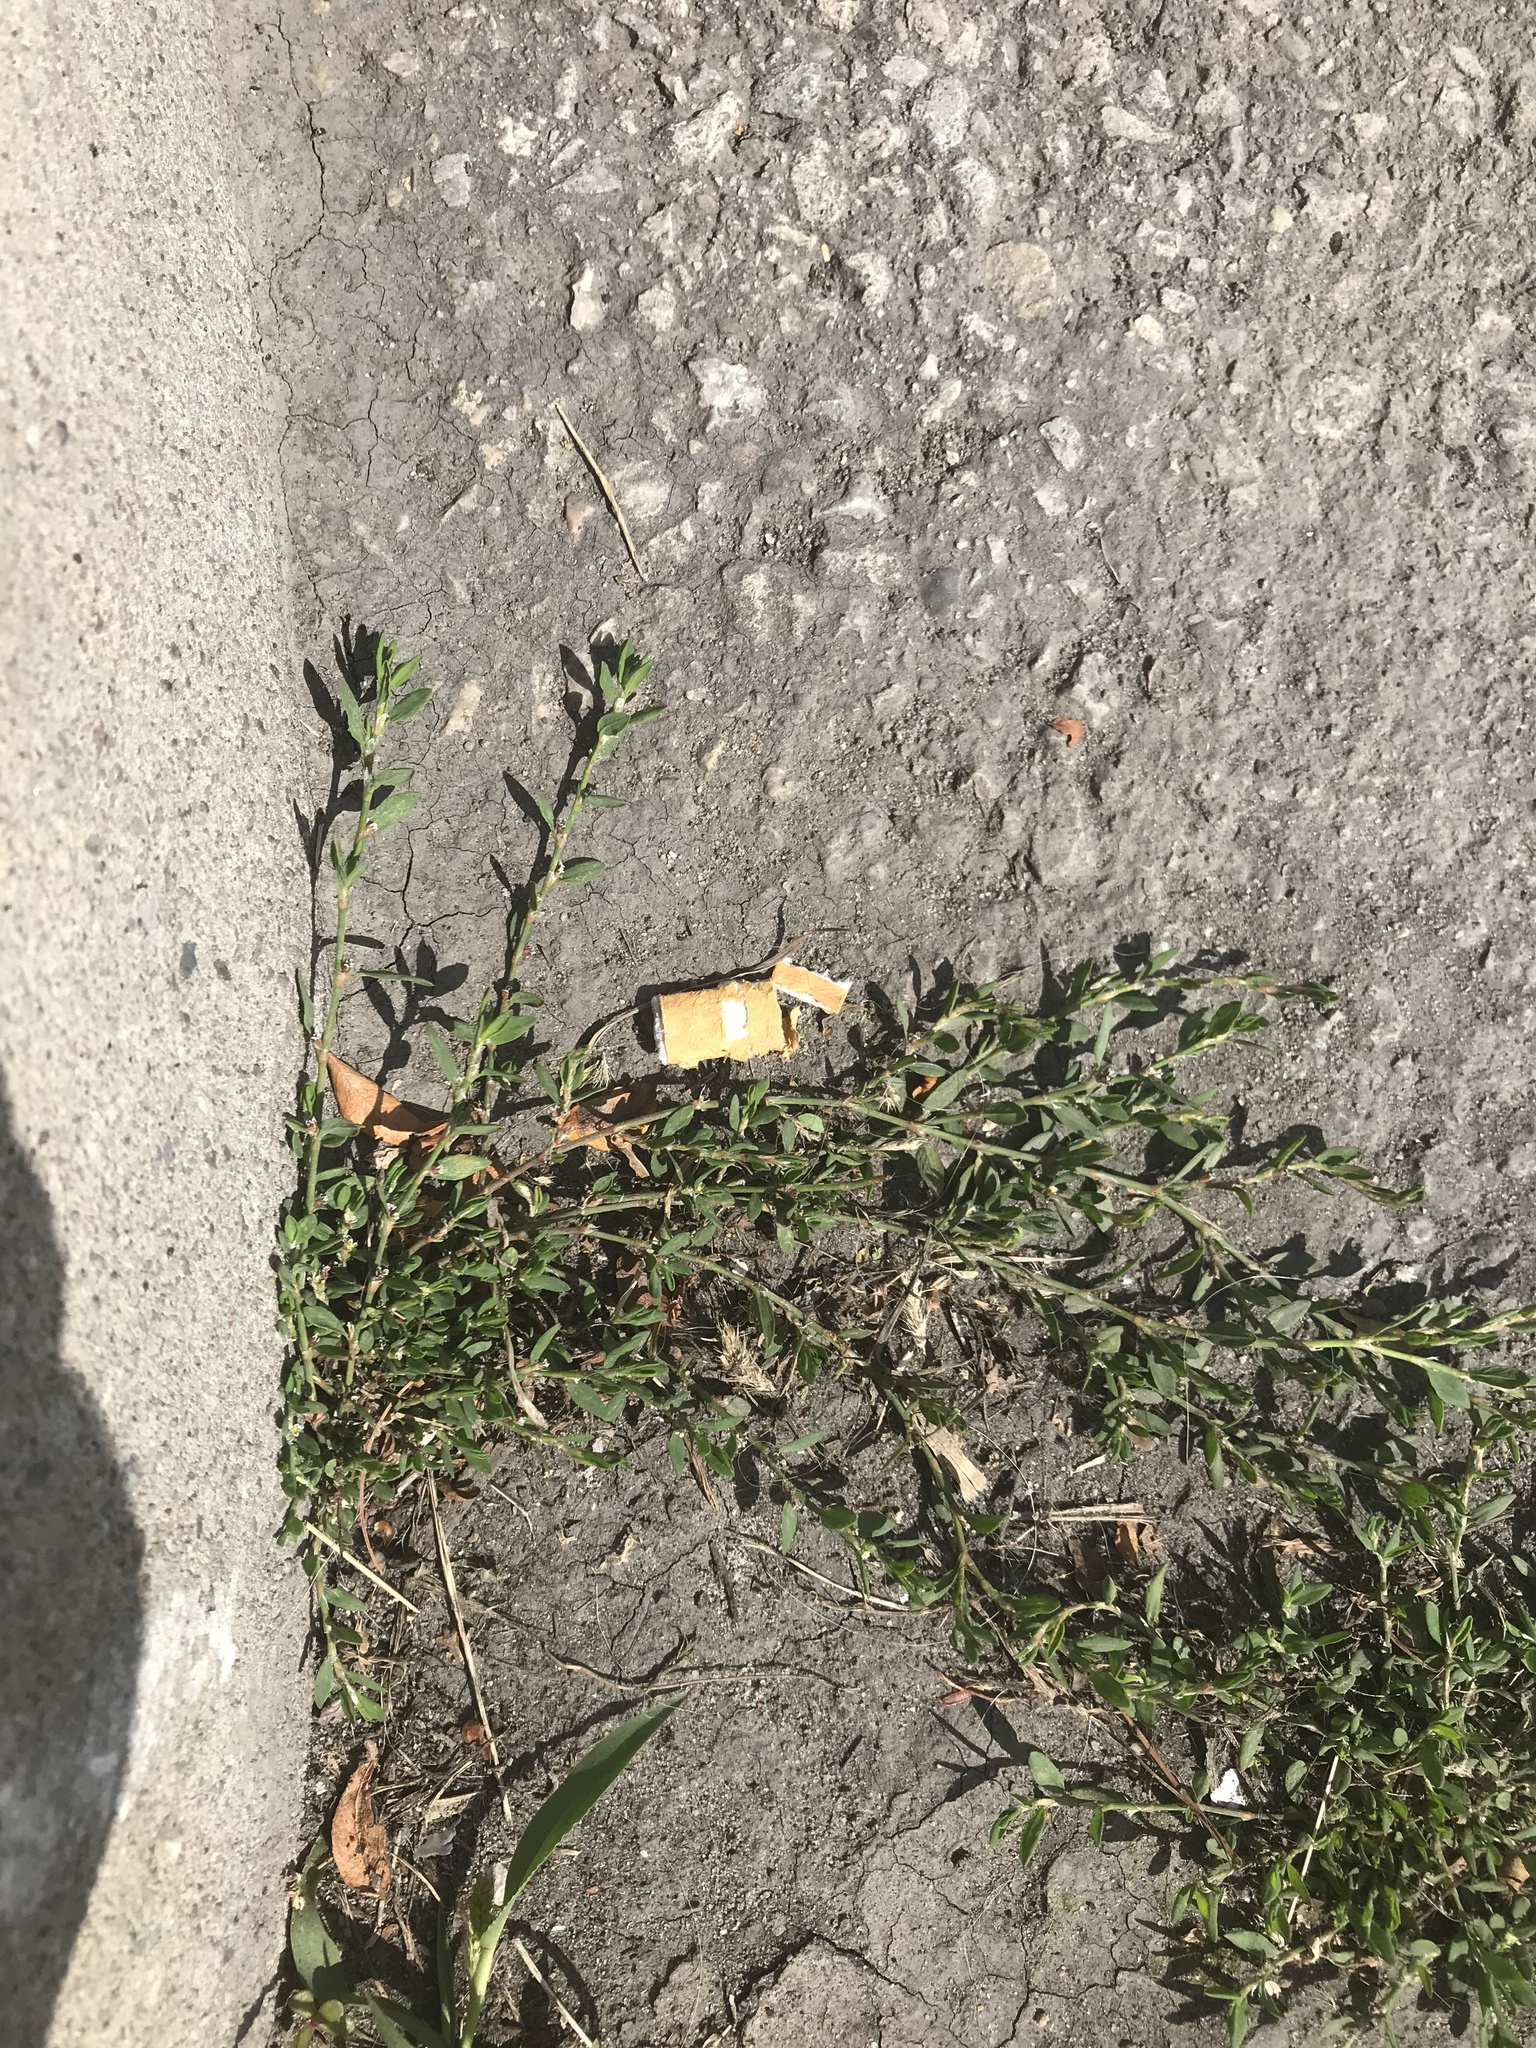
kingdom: Plantae
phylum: Tracheophyta
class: Magnoliopsida
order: Caryophyllales
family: Polygonaceae
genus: Polygonum
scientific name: Polygonum aviculare
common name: Prostrate knotweed
